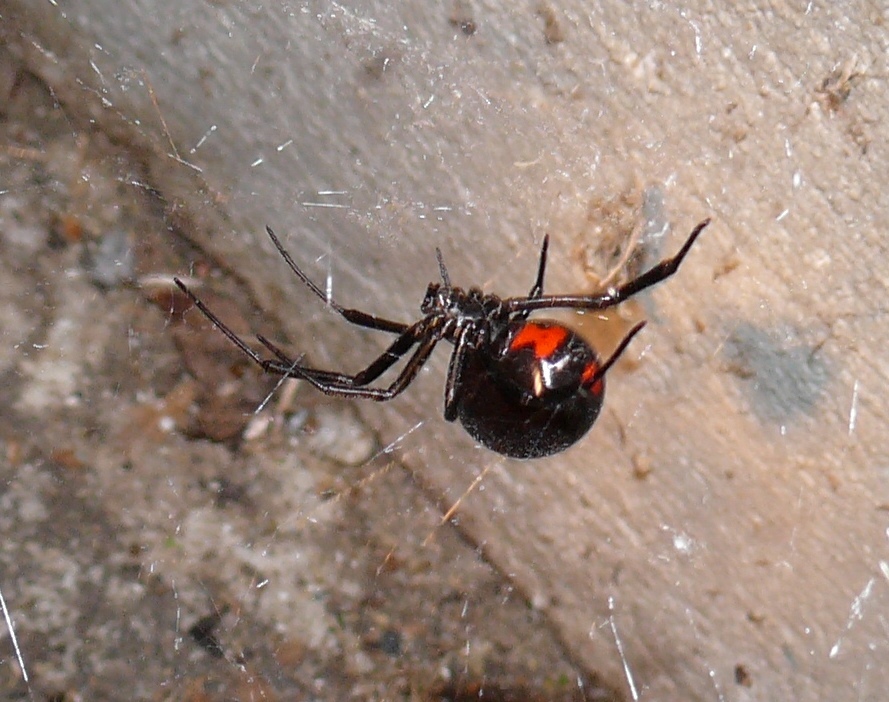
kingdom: Animalia
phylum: Arthropoda
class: Arachnida
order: Araneae
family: Theridiidae
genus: Latrodectus
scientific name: Latrodectus mactans
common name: Cobweb spiders
